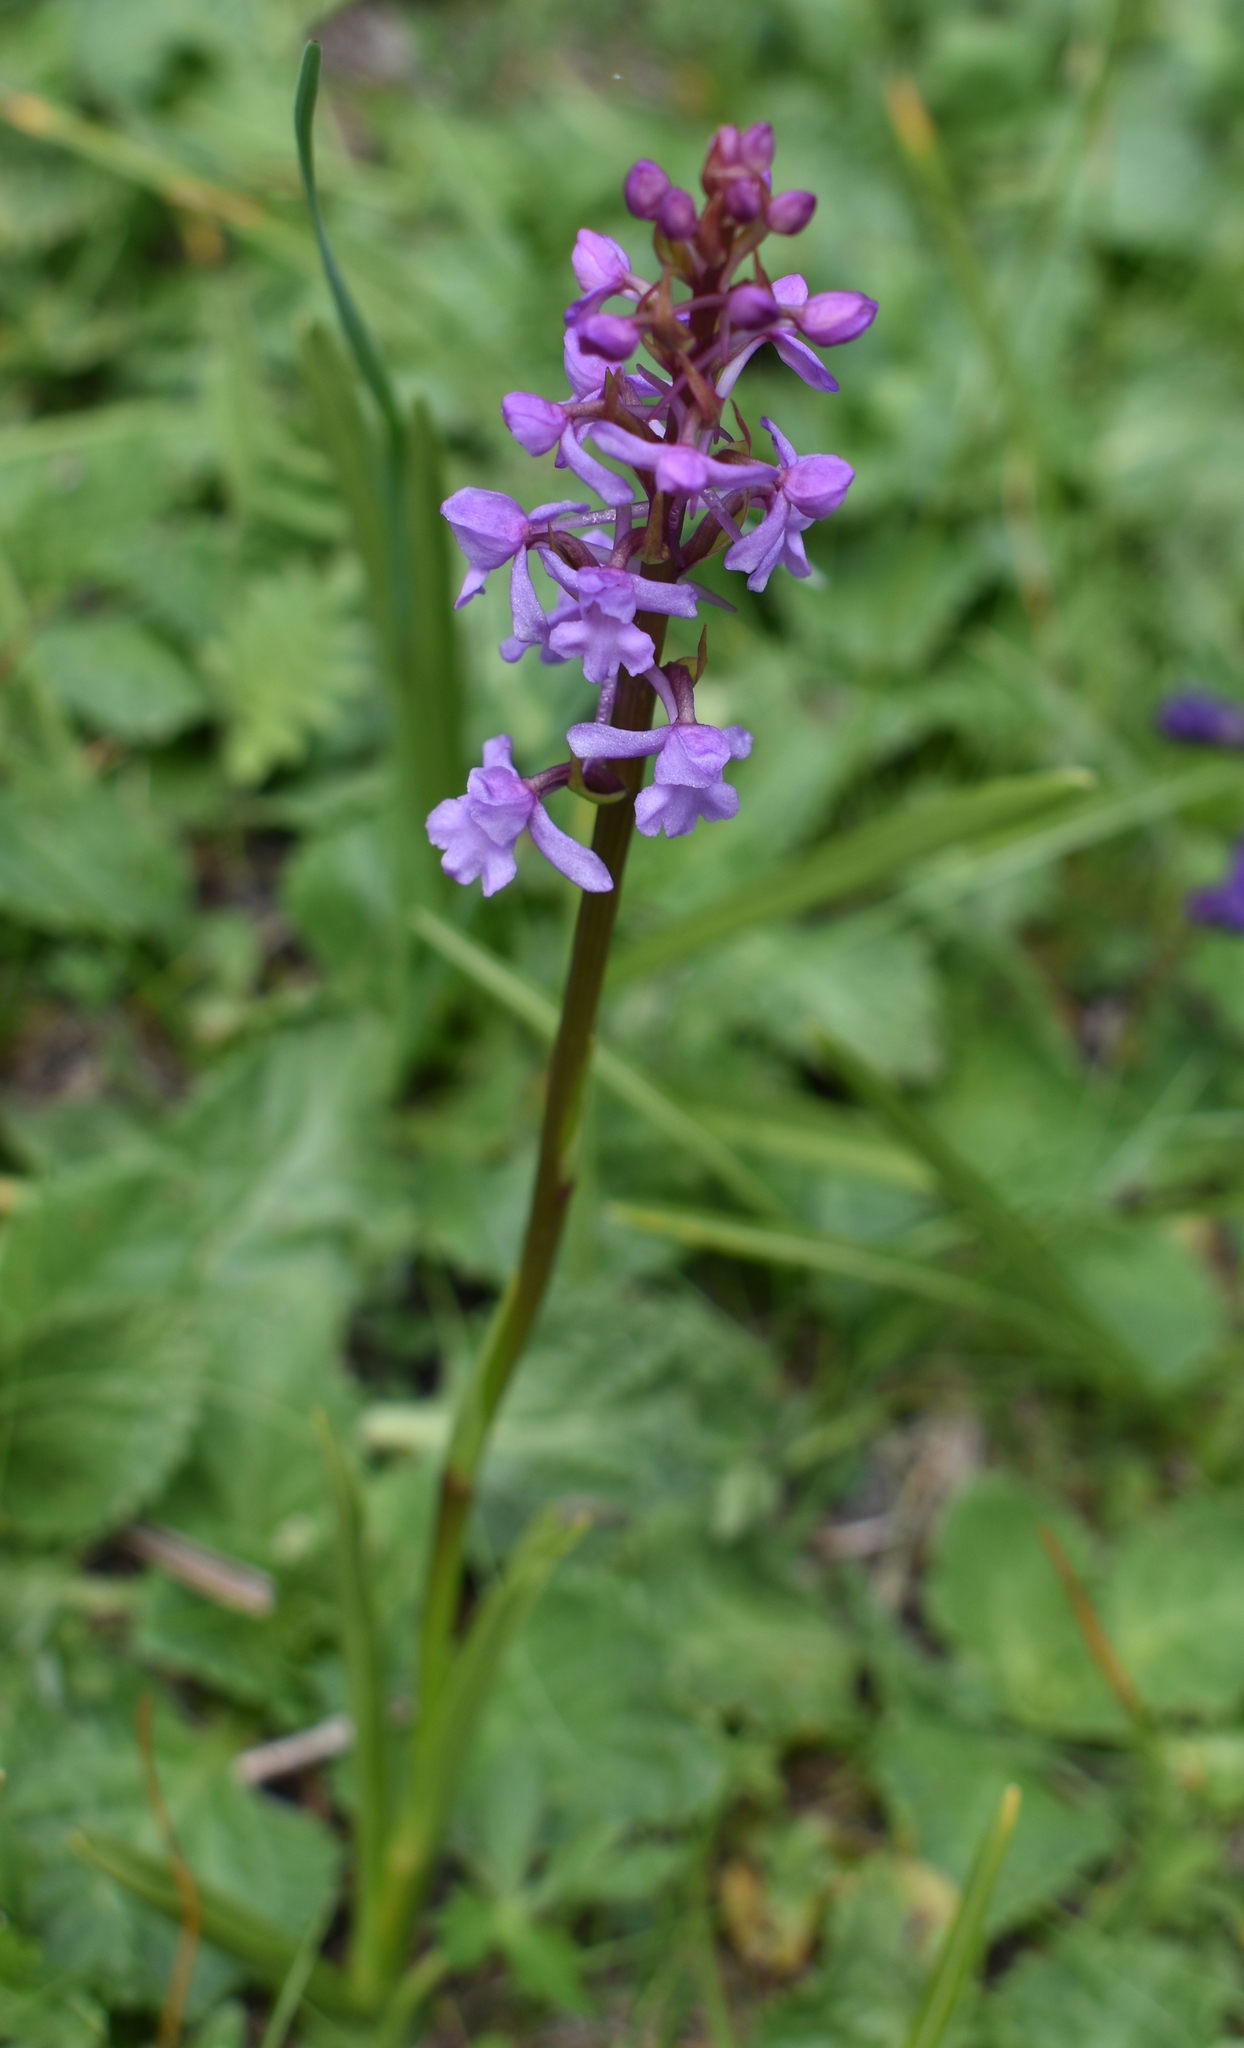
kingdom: Plantae
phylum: Tracheophyta
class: Liliopsida
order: Asparagales
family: Orchidaceae
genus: Gymnadenia
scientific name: Gymnadenia conopsea
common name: Fragrant orchid
